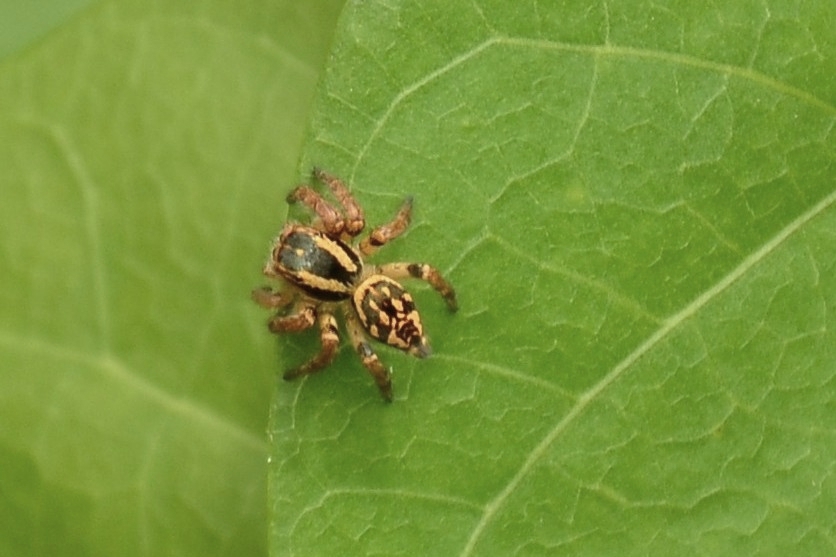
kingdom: Animalia
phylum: Arthropoda
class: Arachnida
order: Araneae
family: Salticidae
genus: Carrhotus
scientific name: Carrhotus viduus
